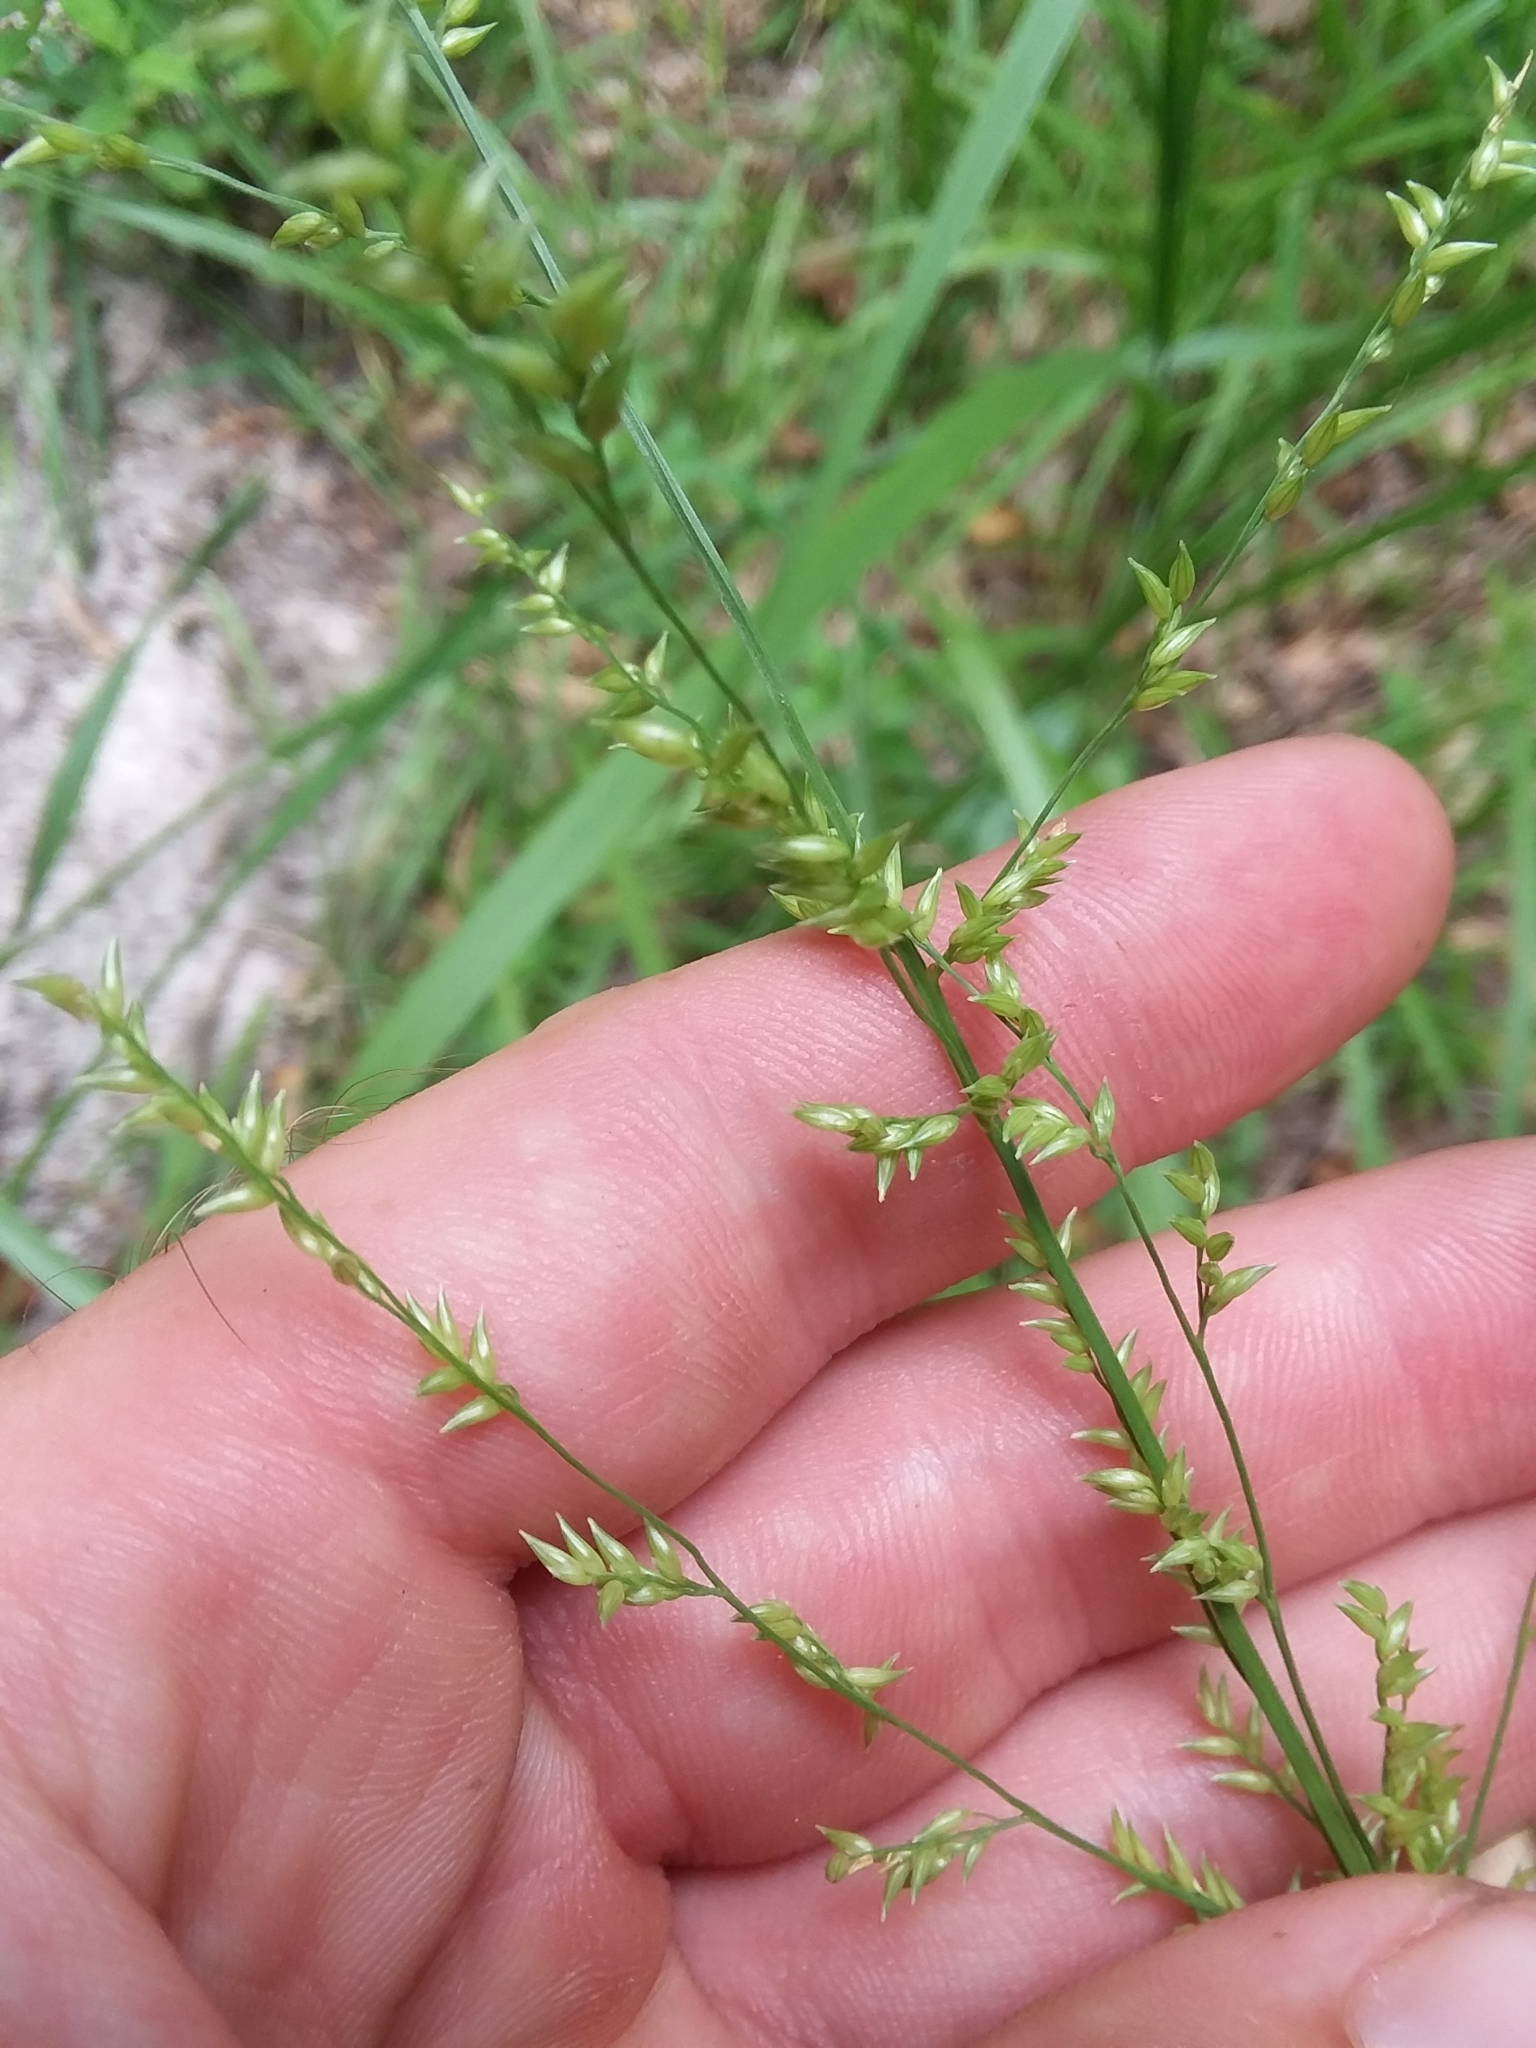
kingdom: Plantae
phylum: Tracheophyta
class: Liliopsida
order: Poales
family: Poaceae
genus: Coleataenia
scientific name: Coleataenia anceps
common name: Beaked panic grass
